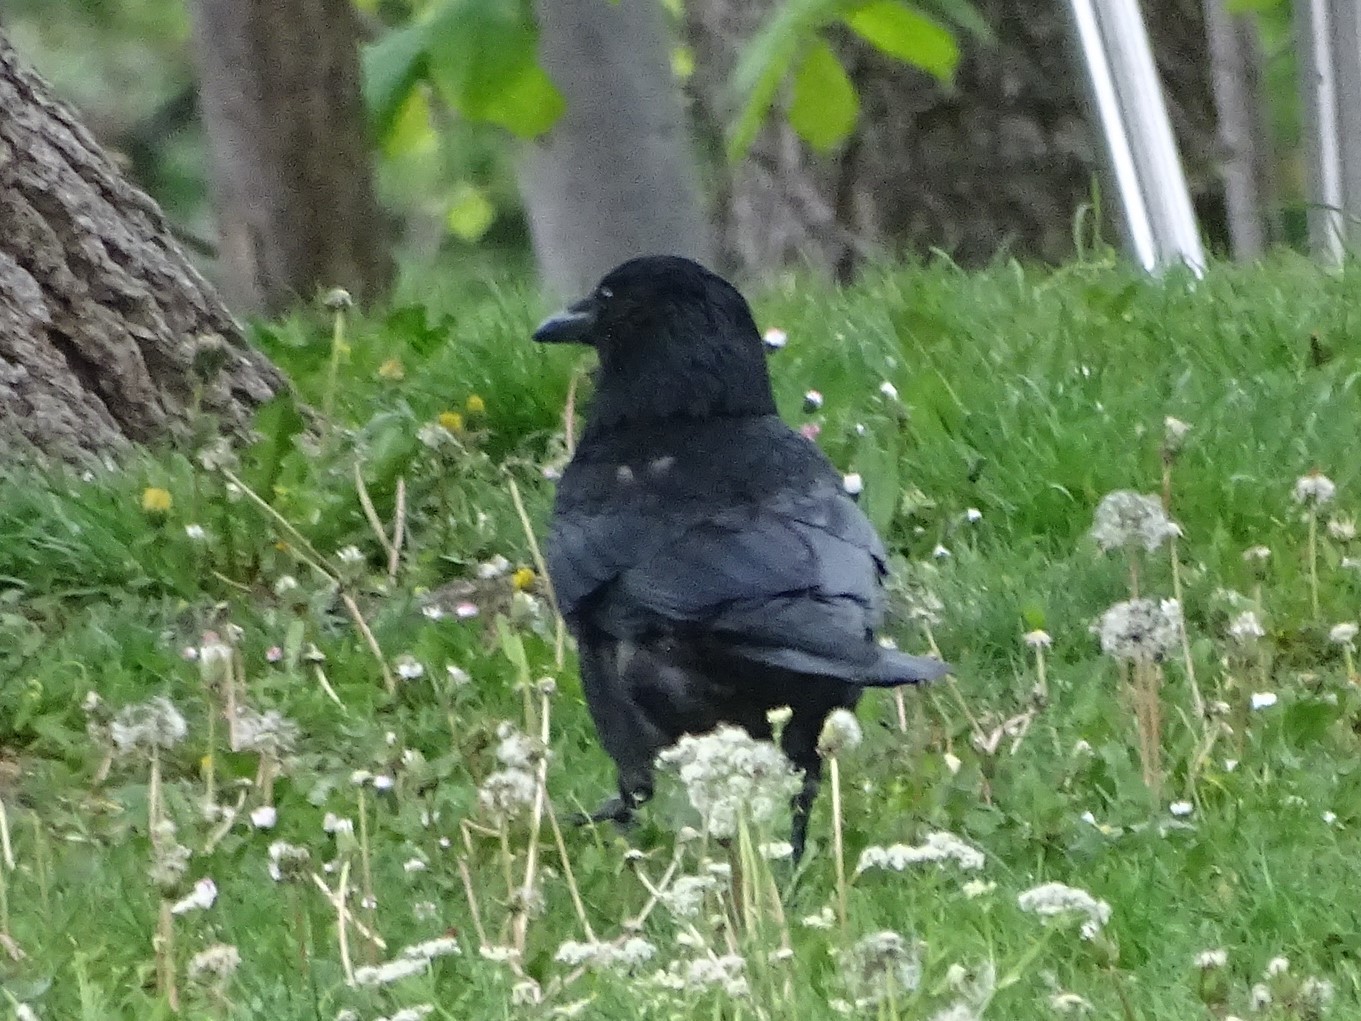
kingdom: Animalia
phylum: Chordata
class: Aves
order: Passeriformes
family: Corvidae
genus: Corvus
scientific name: Corvus corone
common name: Carrion crow
